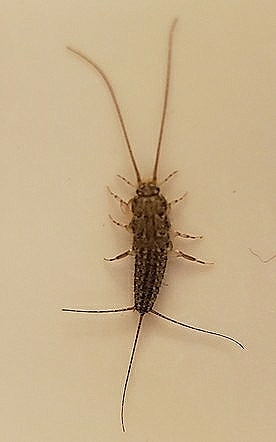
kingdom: Animalia
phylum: Arthropoda
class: Insecta
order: Zygentoma
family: Lepismatidae
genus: Ctenolepisma
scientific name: Ctenolepisma lineata
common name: Four-lined silverfish
